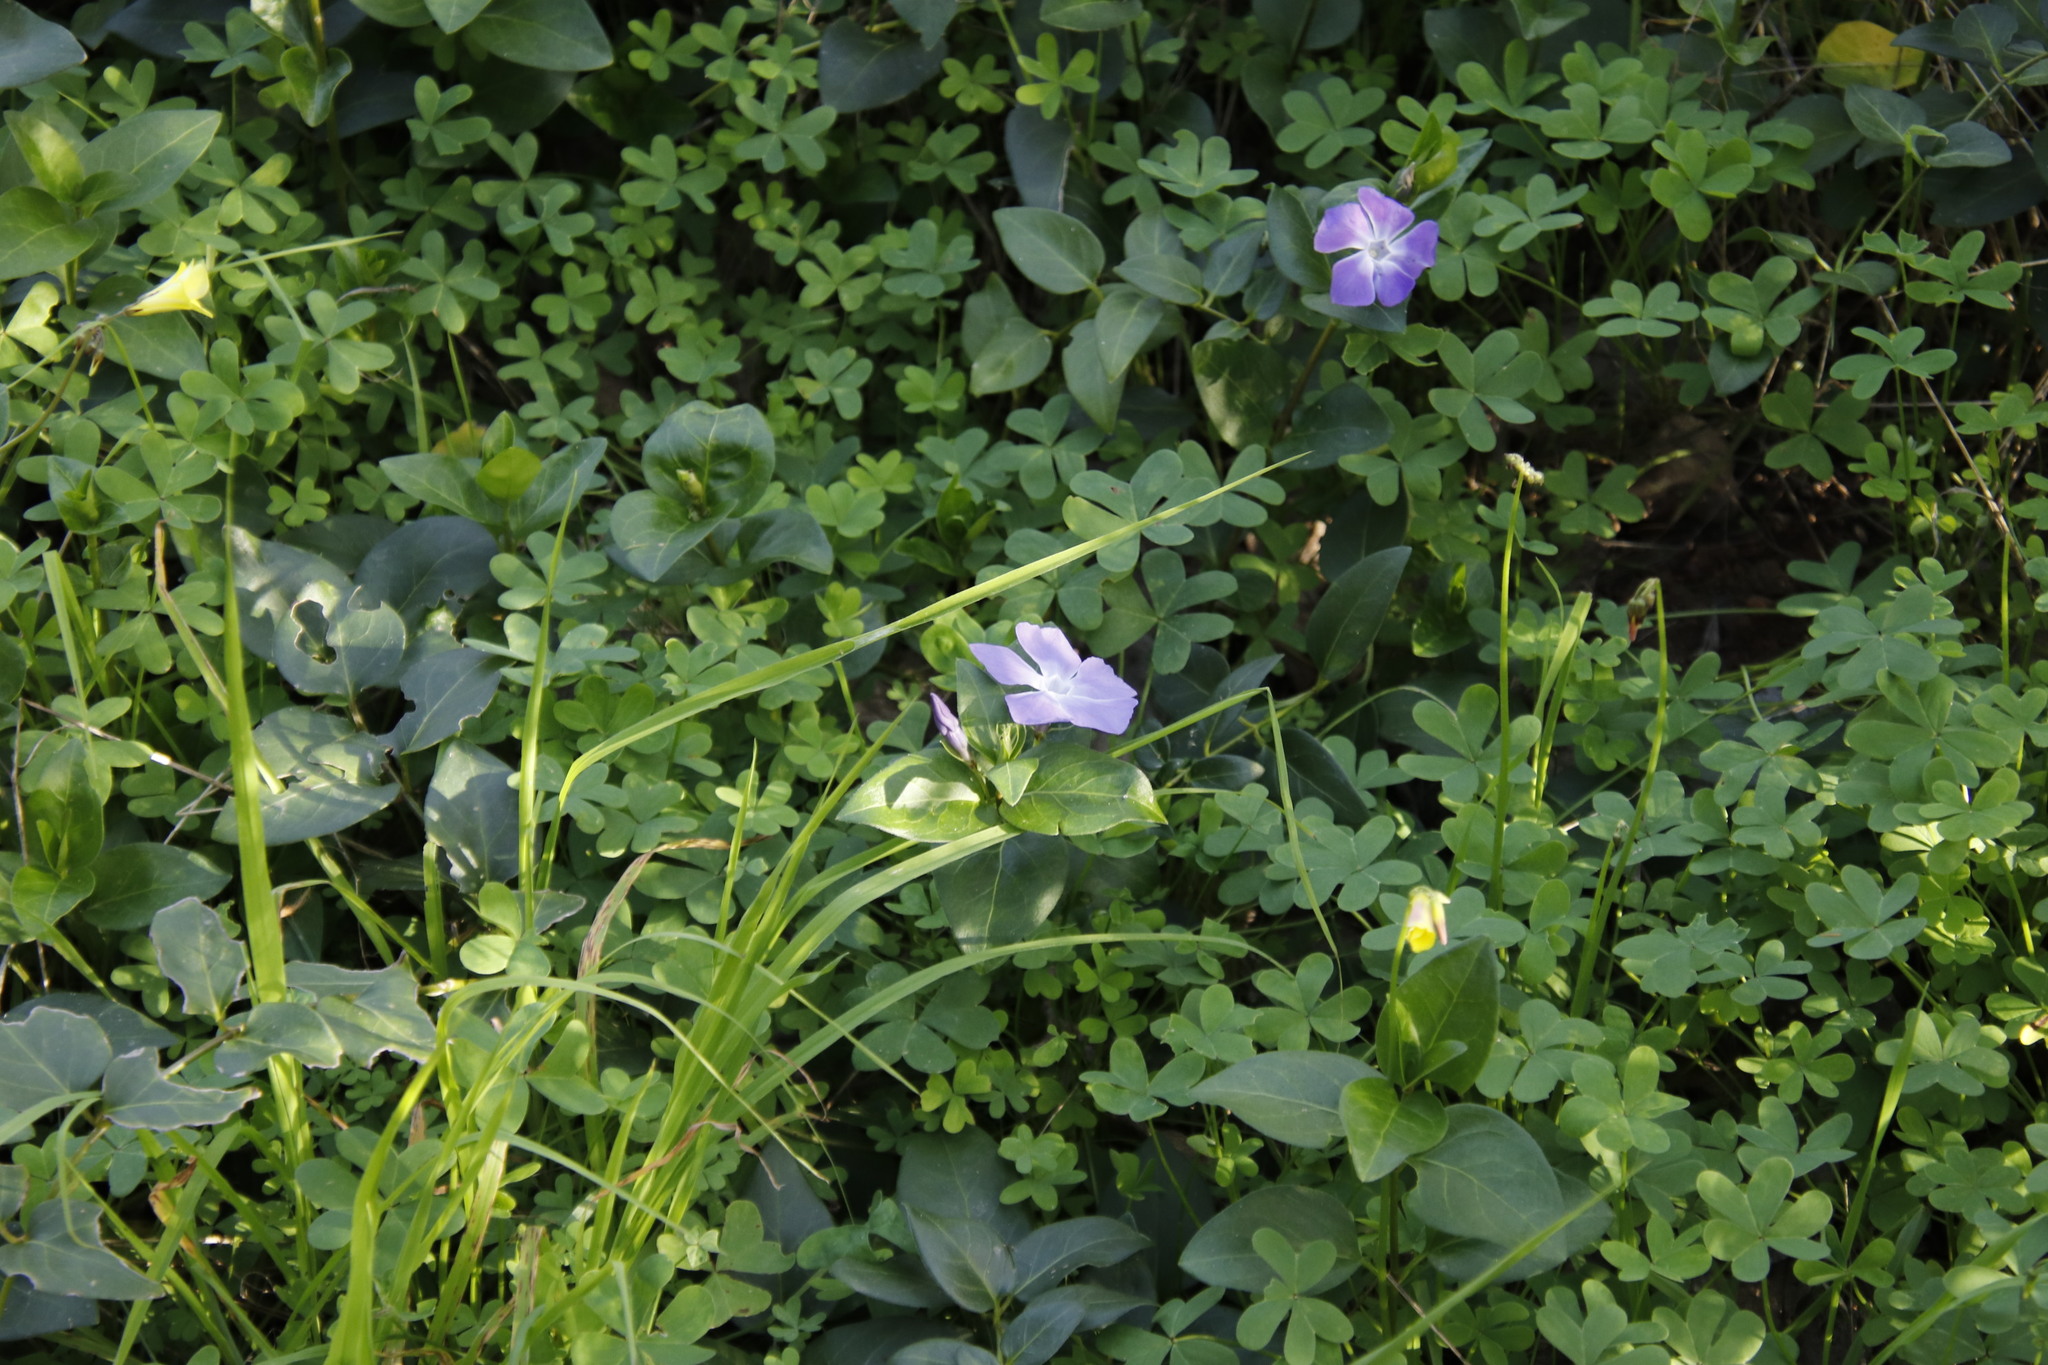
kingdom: Plantae
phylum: Tracheophyta
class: Magnoliopsida
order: Gentianales
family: Apocynaceae
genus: Vinca
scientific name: Vinca major
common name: Greater periwinkle
